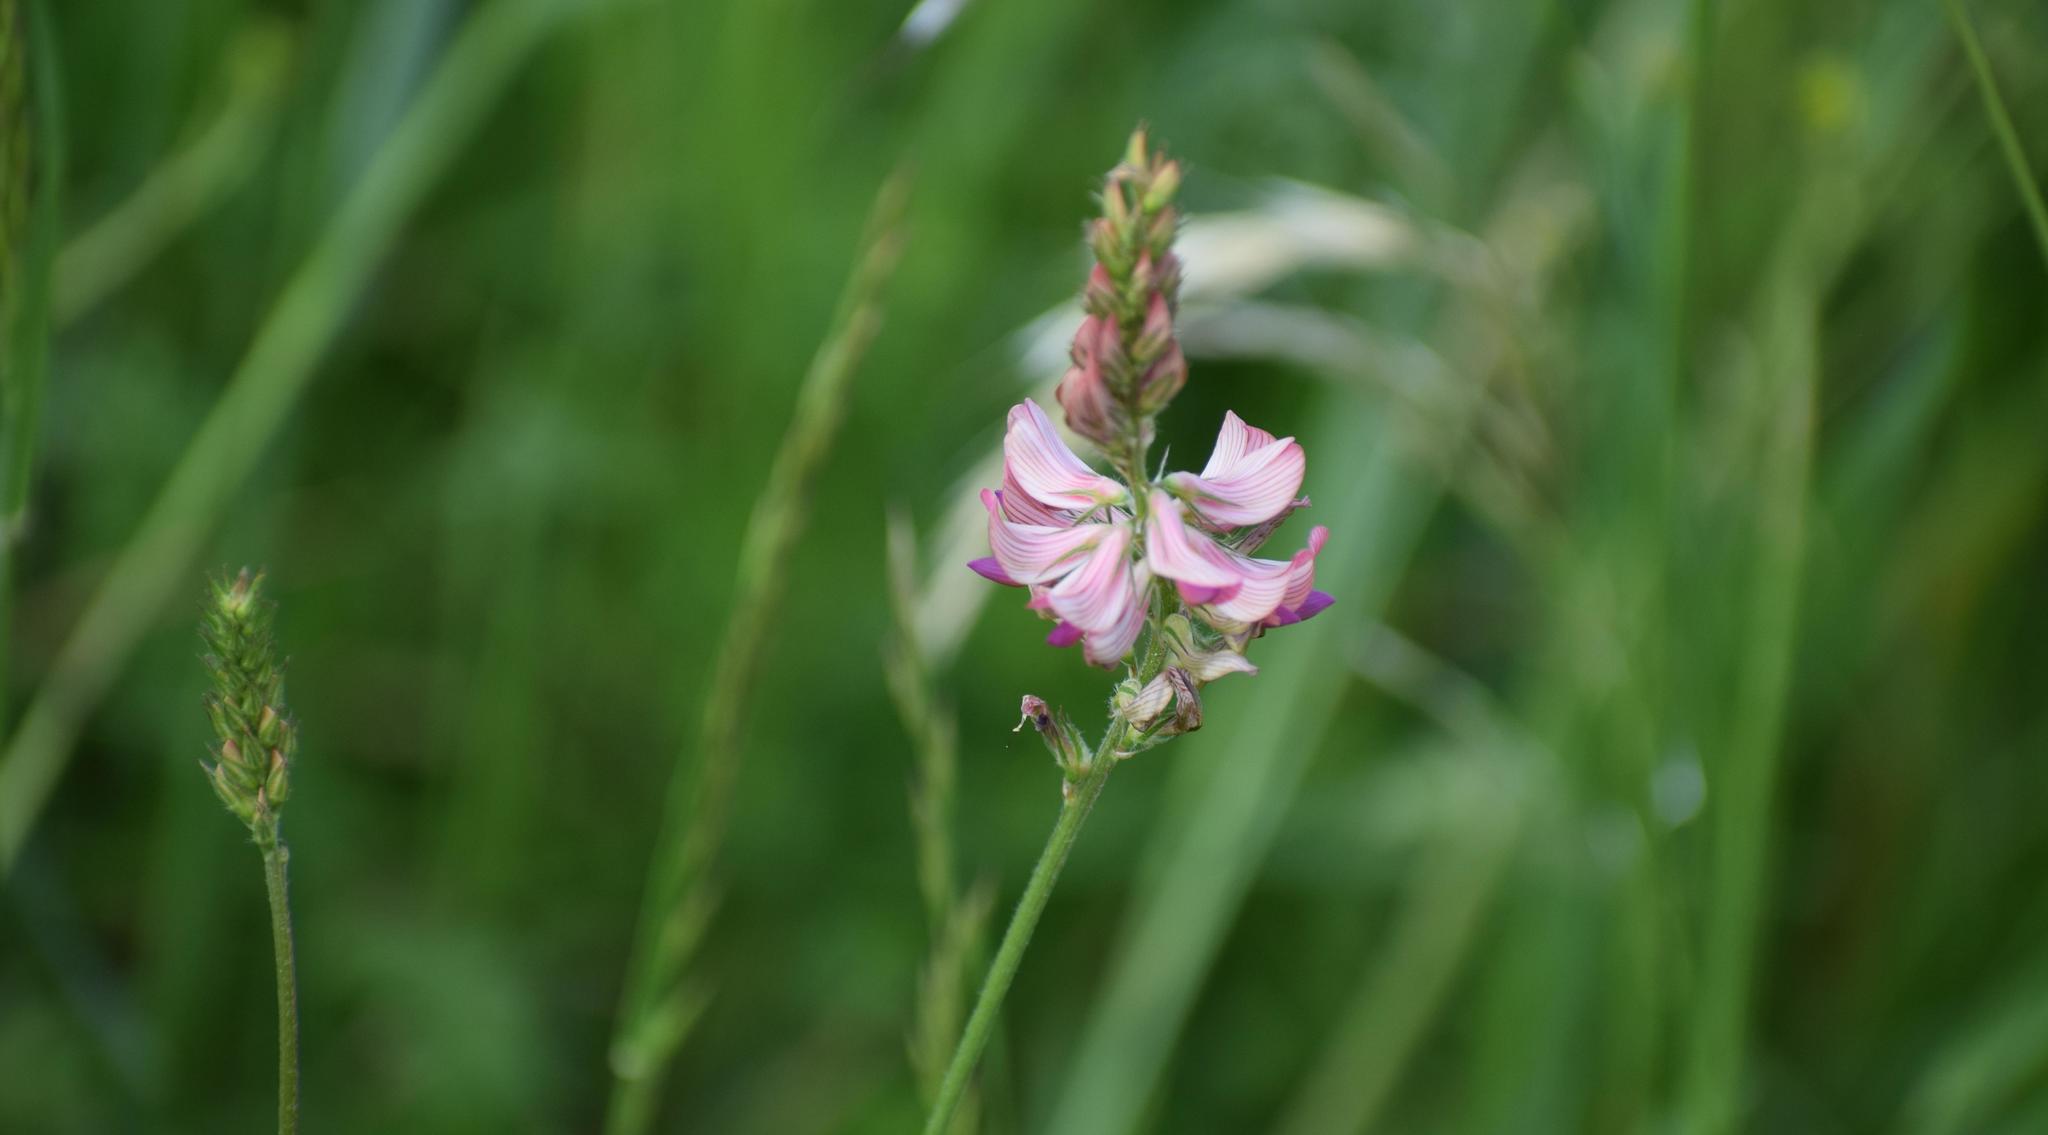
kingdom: Plantae
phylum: Tracheophyta
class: Magnoliopsida
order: Fabales
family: Fabaceae
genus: Onobrychis
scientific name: Onobrychis viciifolia
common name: Sainfoin
